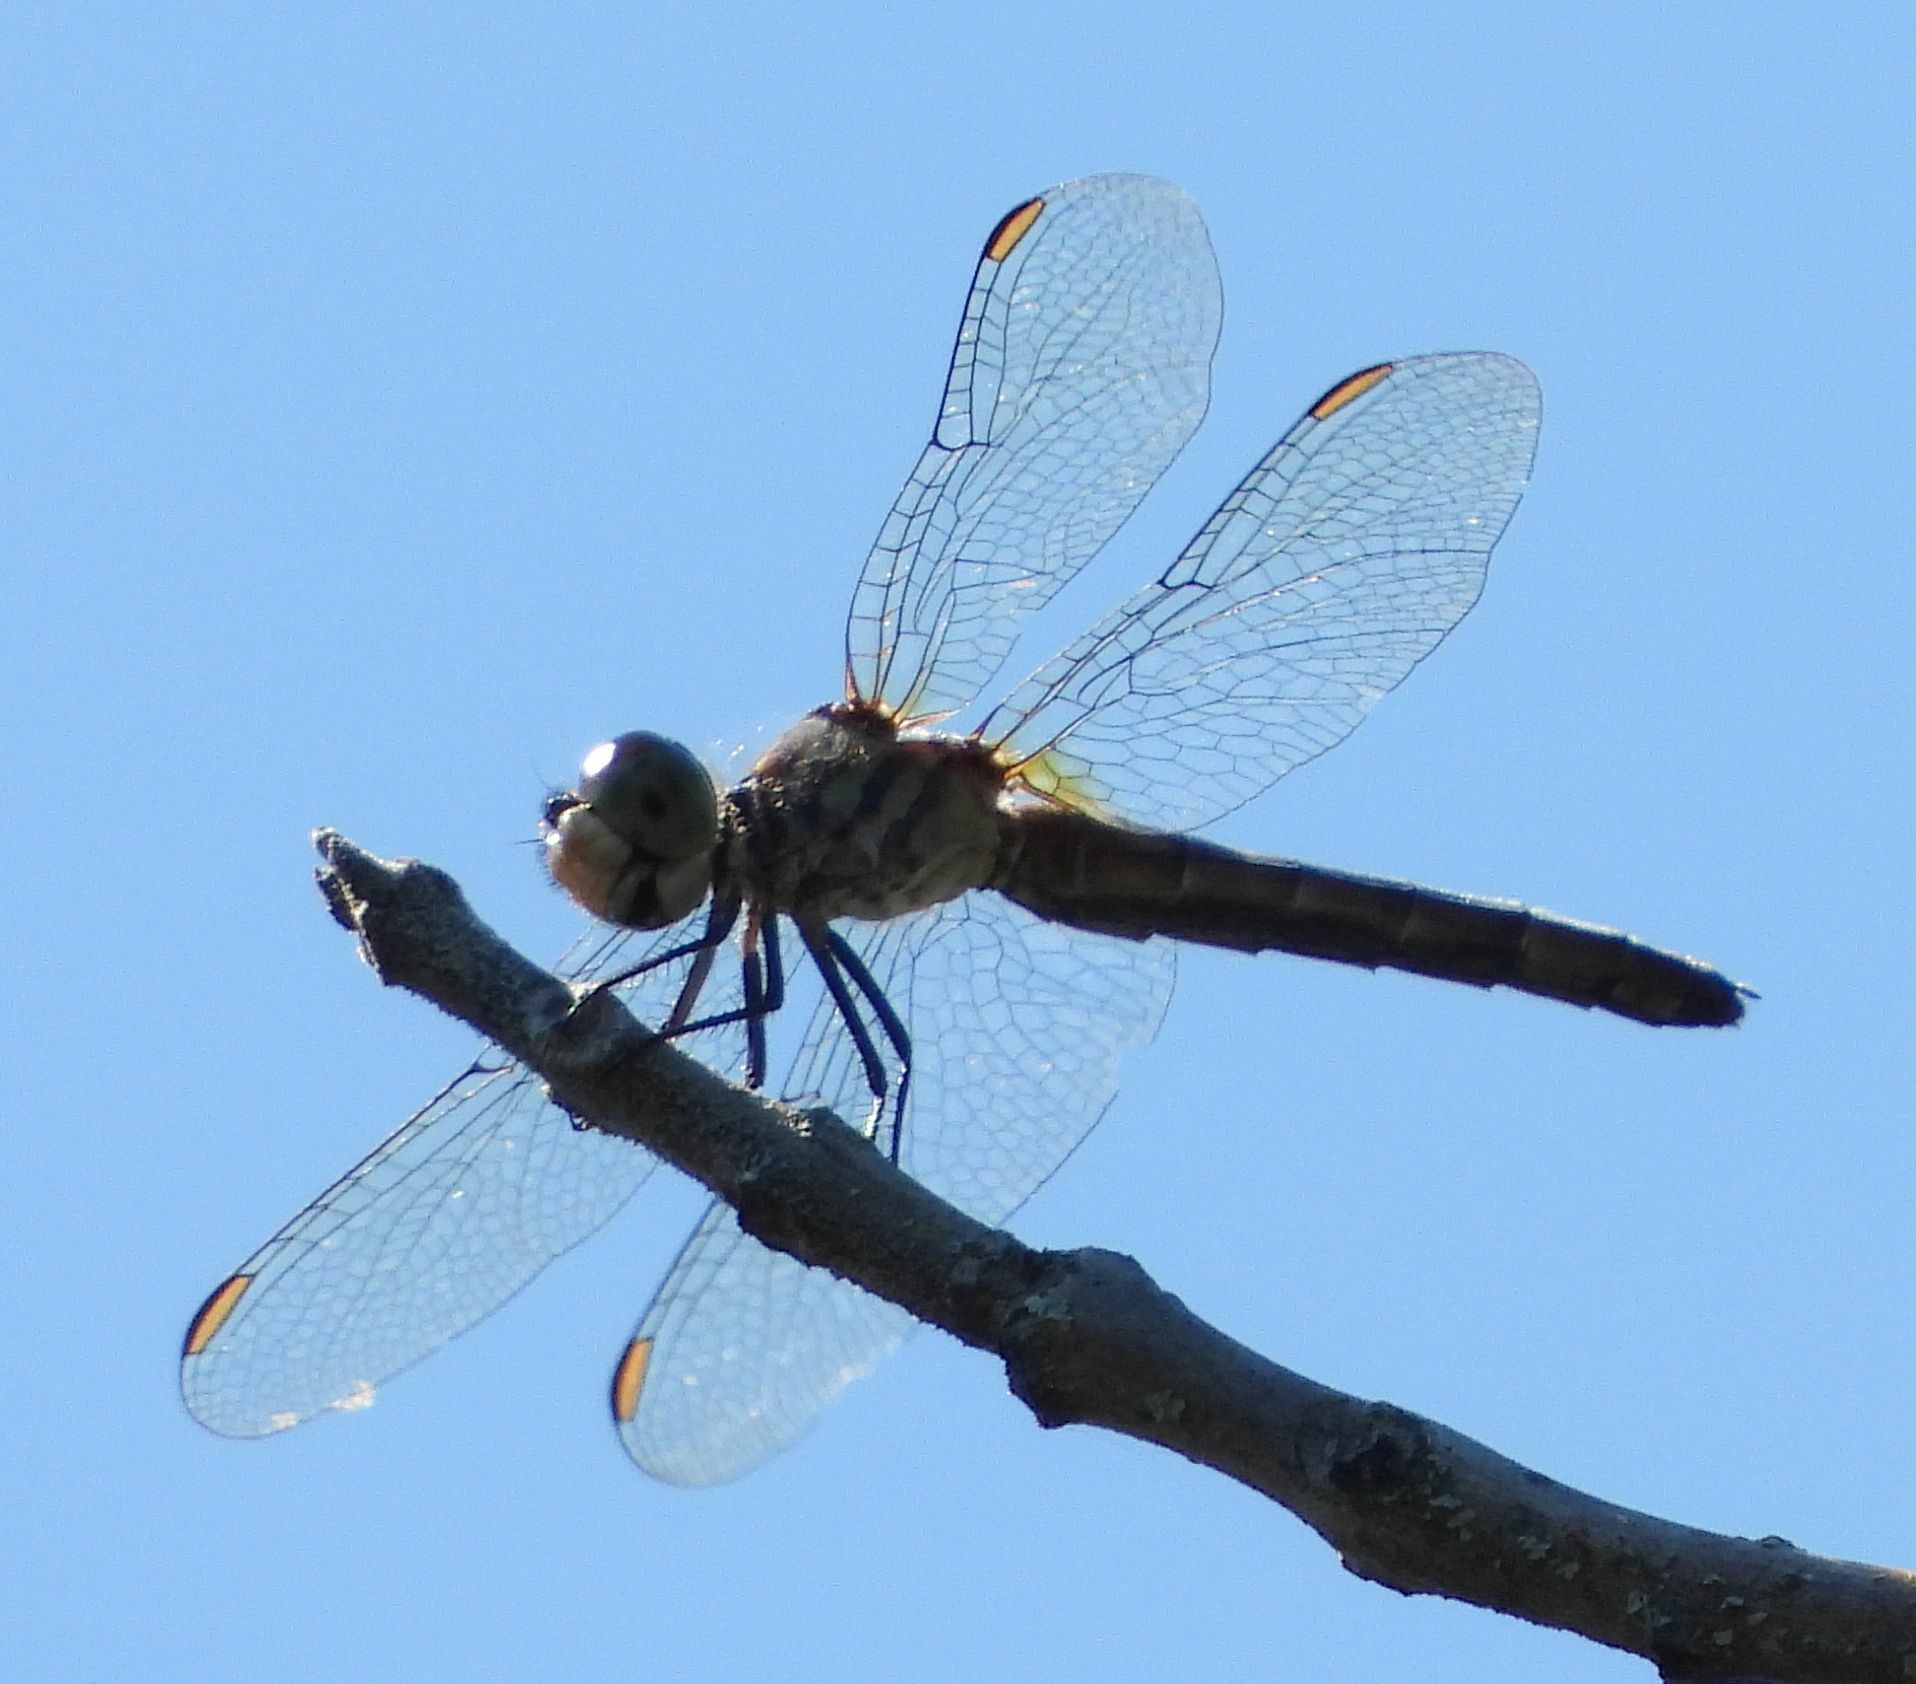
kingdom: Animalia
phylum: Arthropoda
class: Insecta
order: Odonata
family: Libellulidae
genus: Pachydiplax
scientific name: Pachydiplax longipennis
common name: Blue dasher
